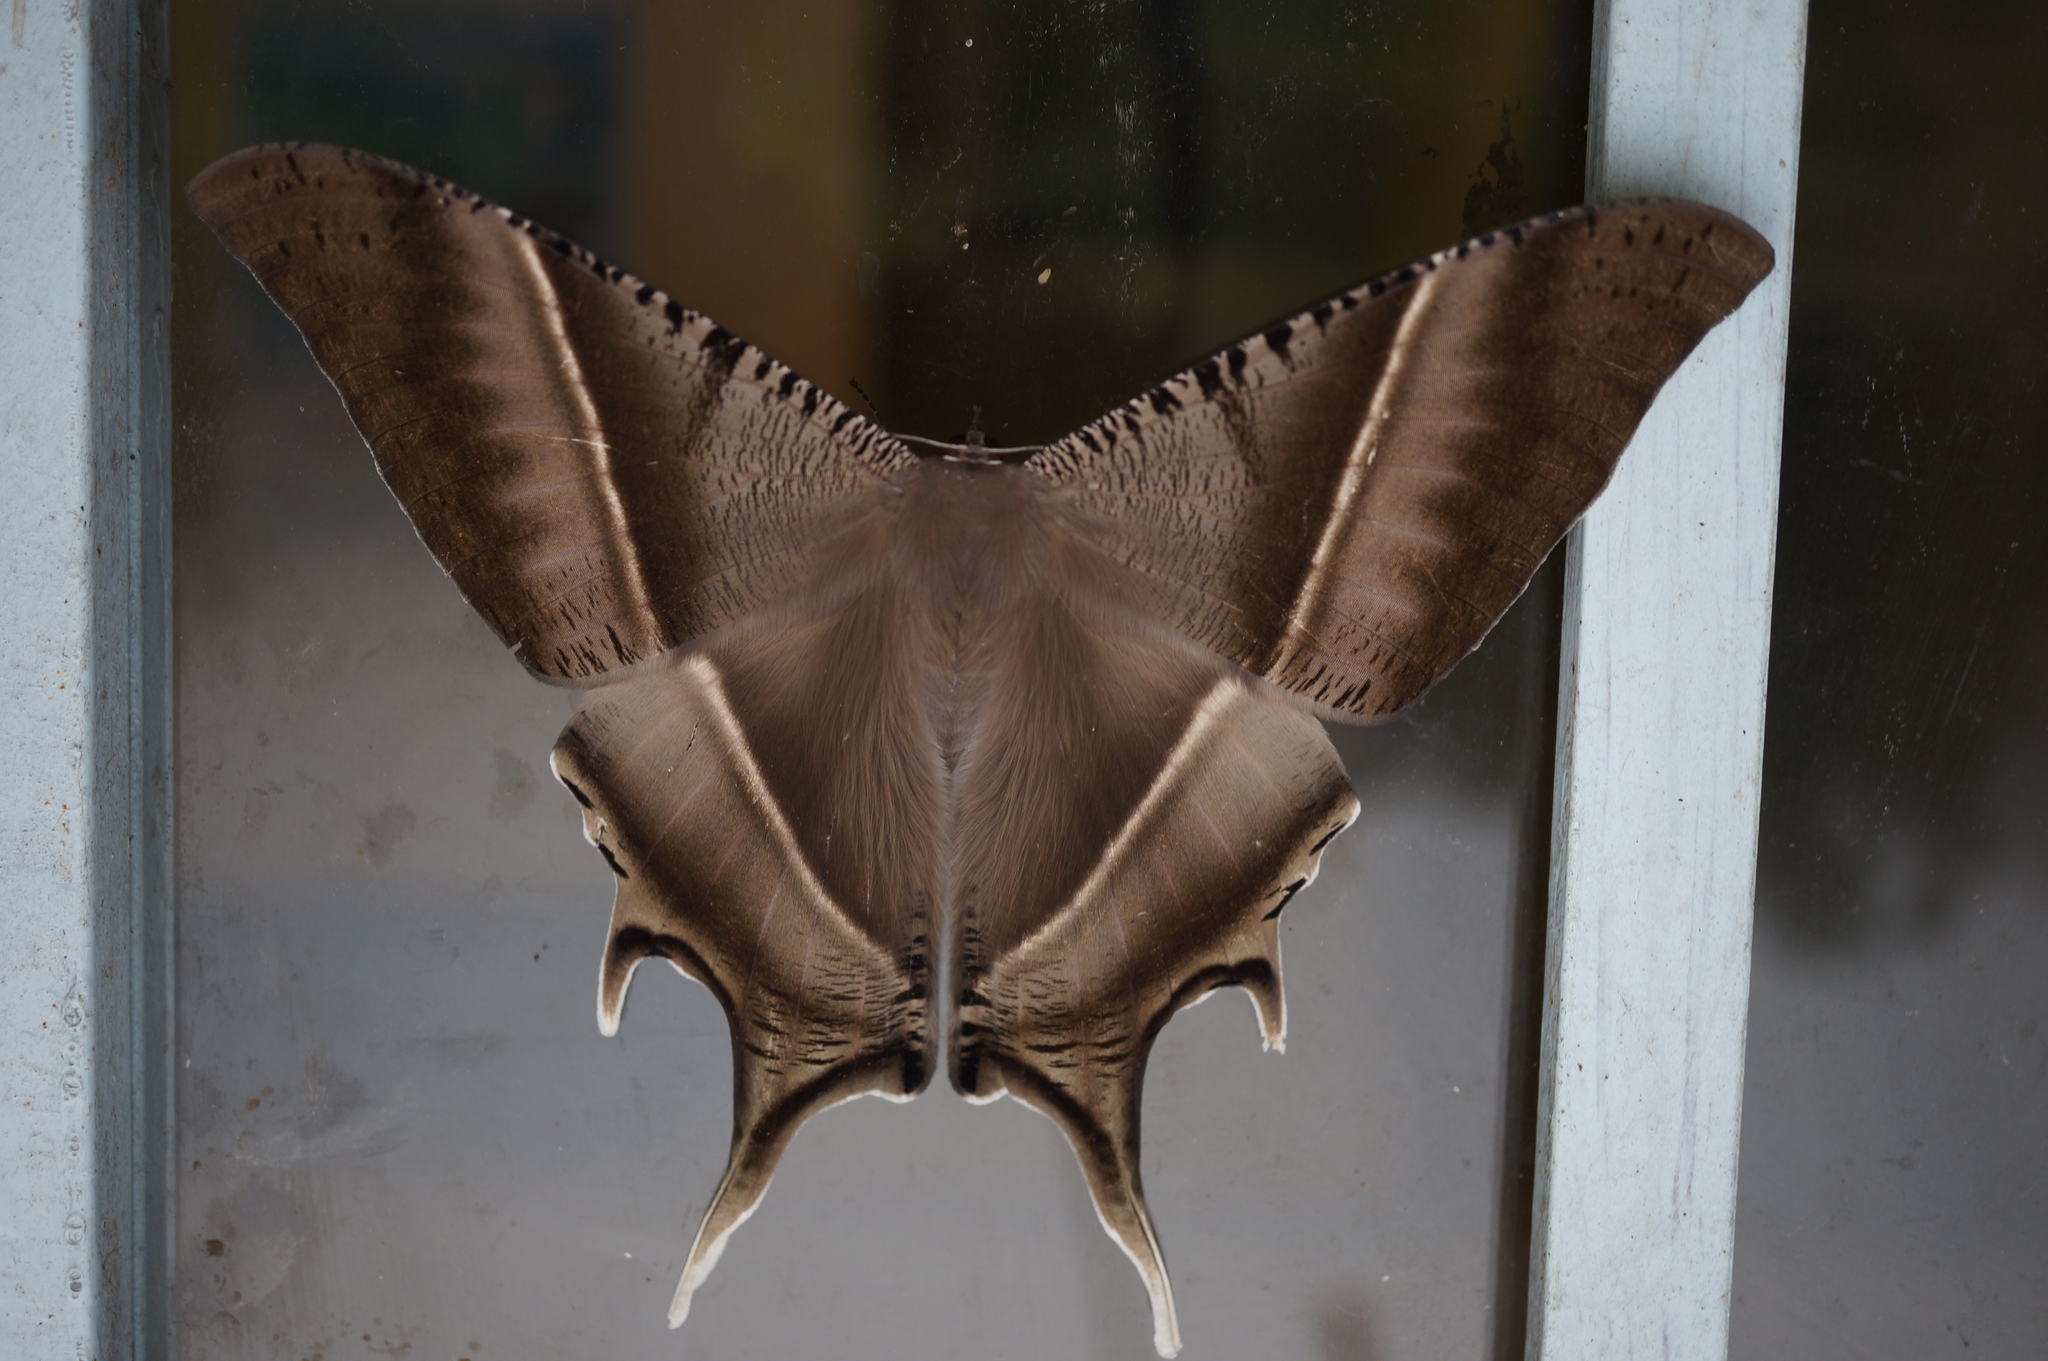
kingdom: Animalia
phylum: Arthropoda
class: Insecta
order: Lepidoptera
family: Uraniidae
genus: Lyssa
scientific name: Lyssa zampa
